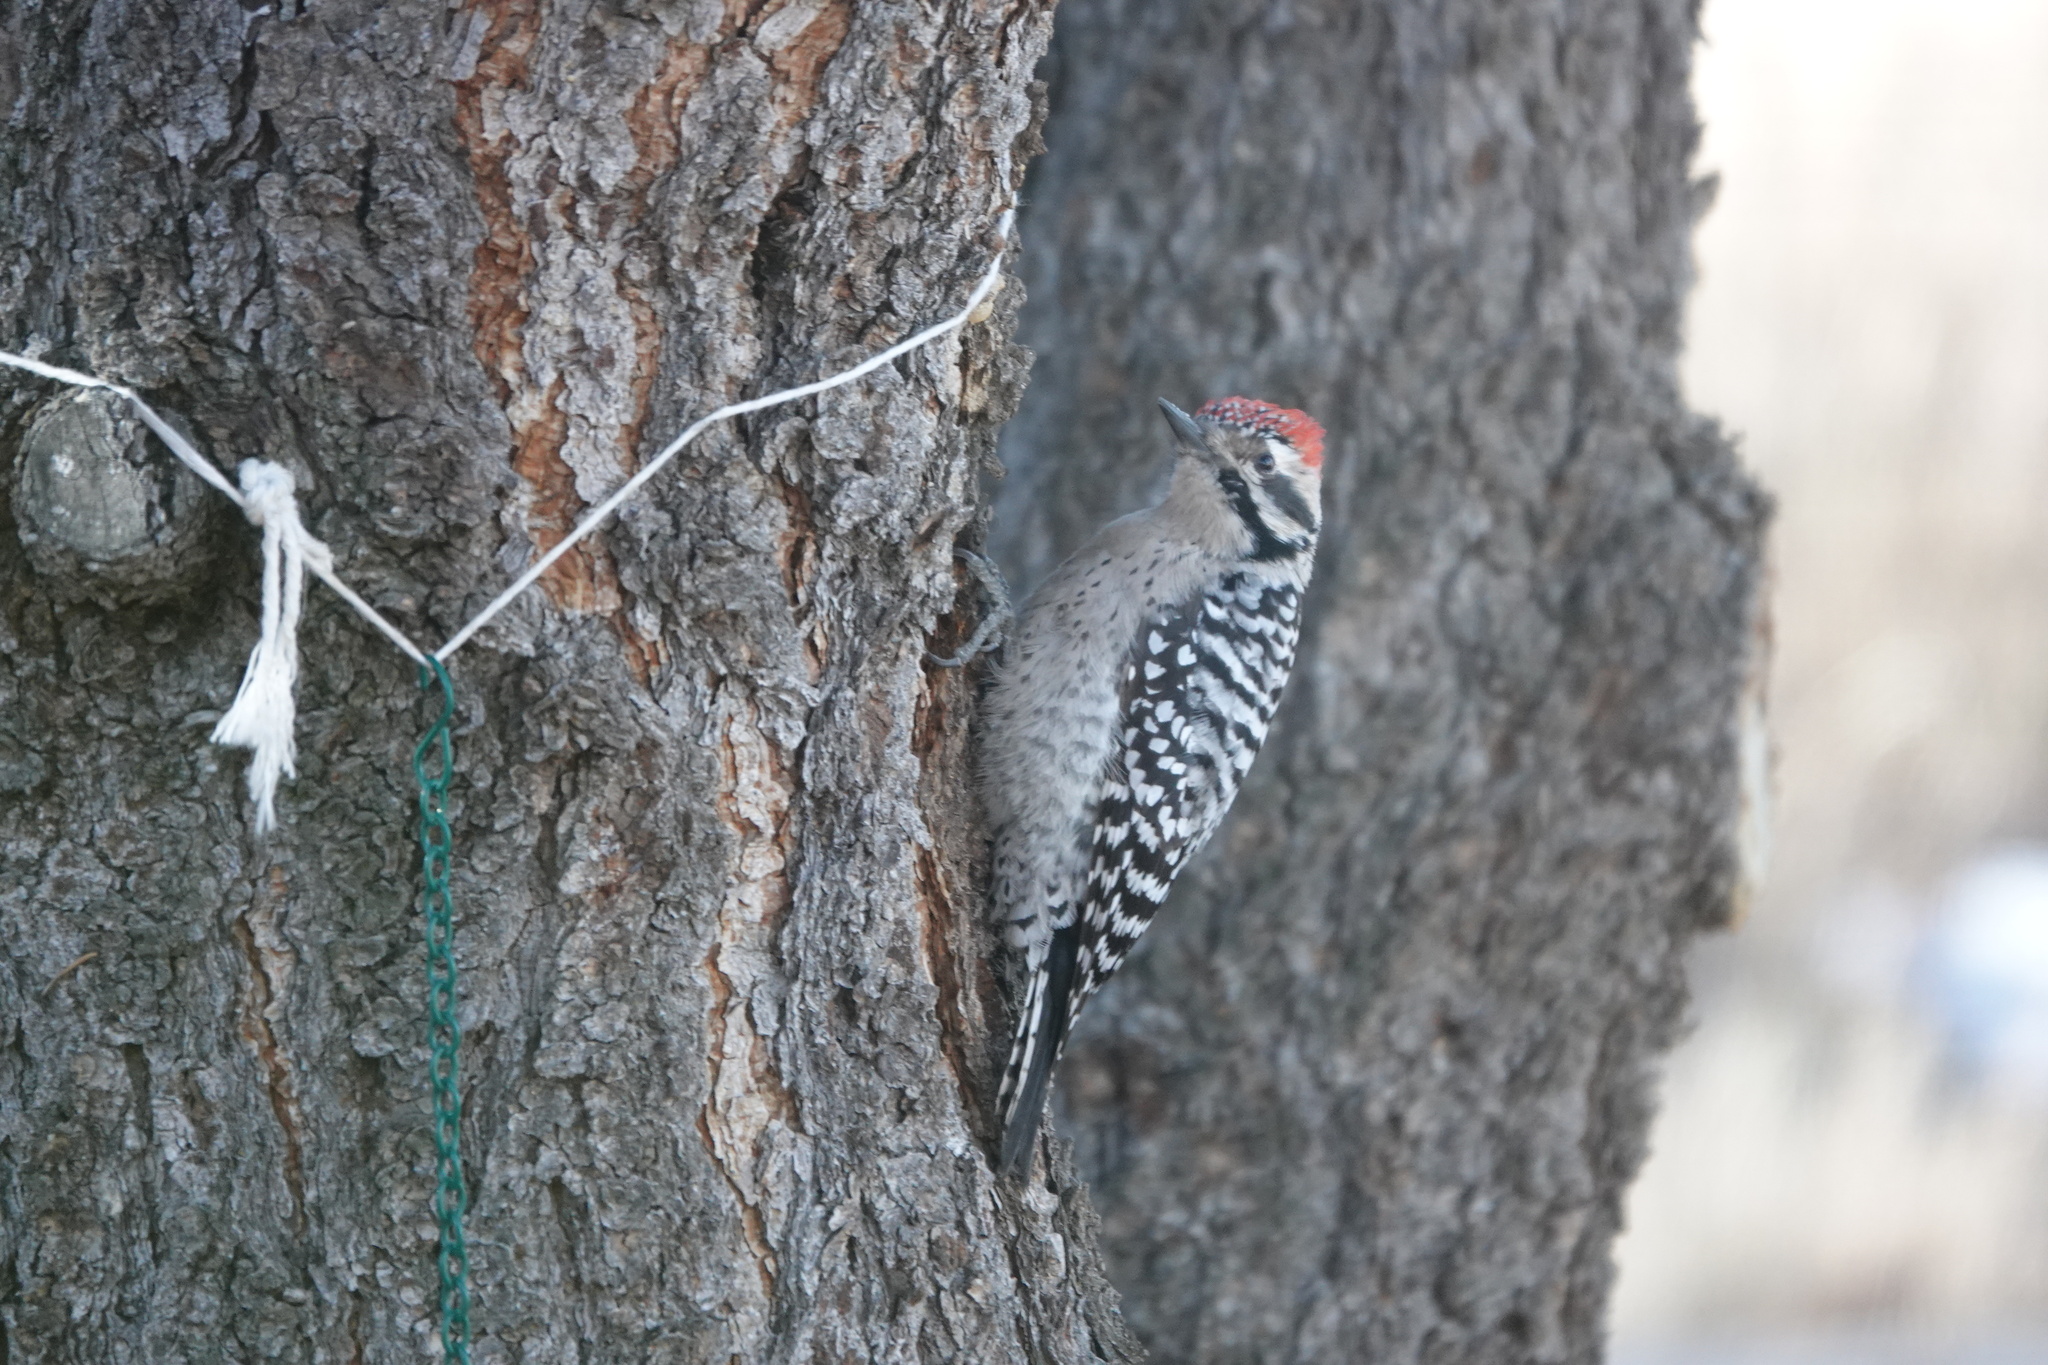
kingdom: Animalia
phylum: Chordata
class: Aves
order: Piciformes
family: Picidae
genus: Dryobates
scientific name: Dryobates scalaris
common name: Ladder-backed woodpecker
